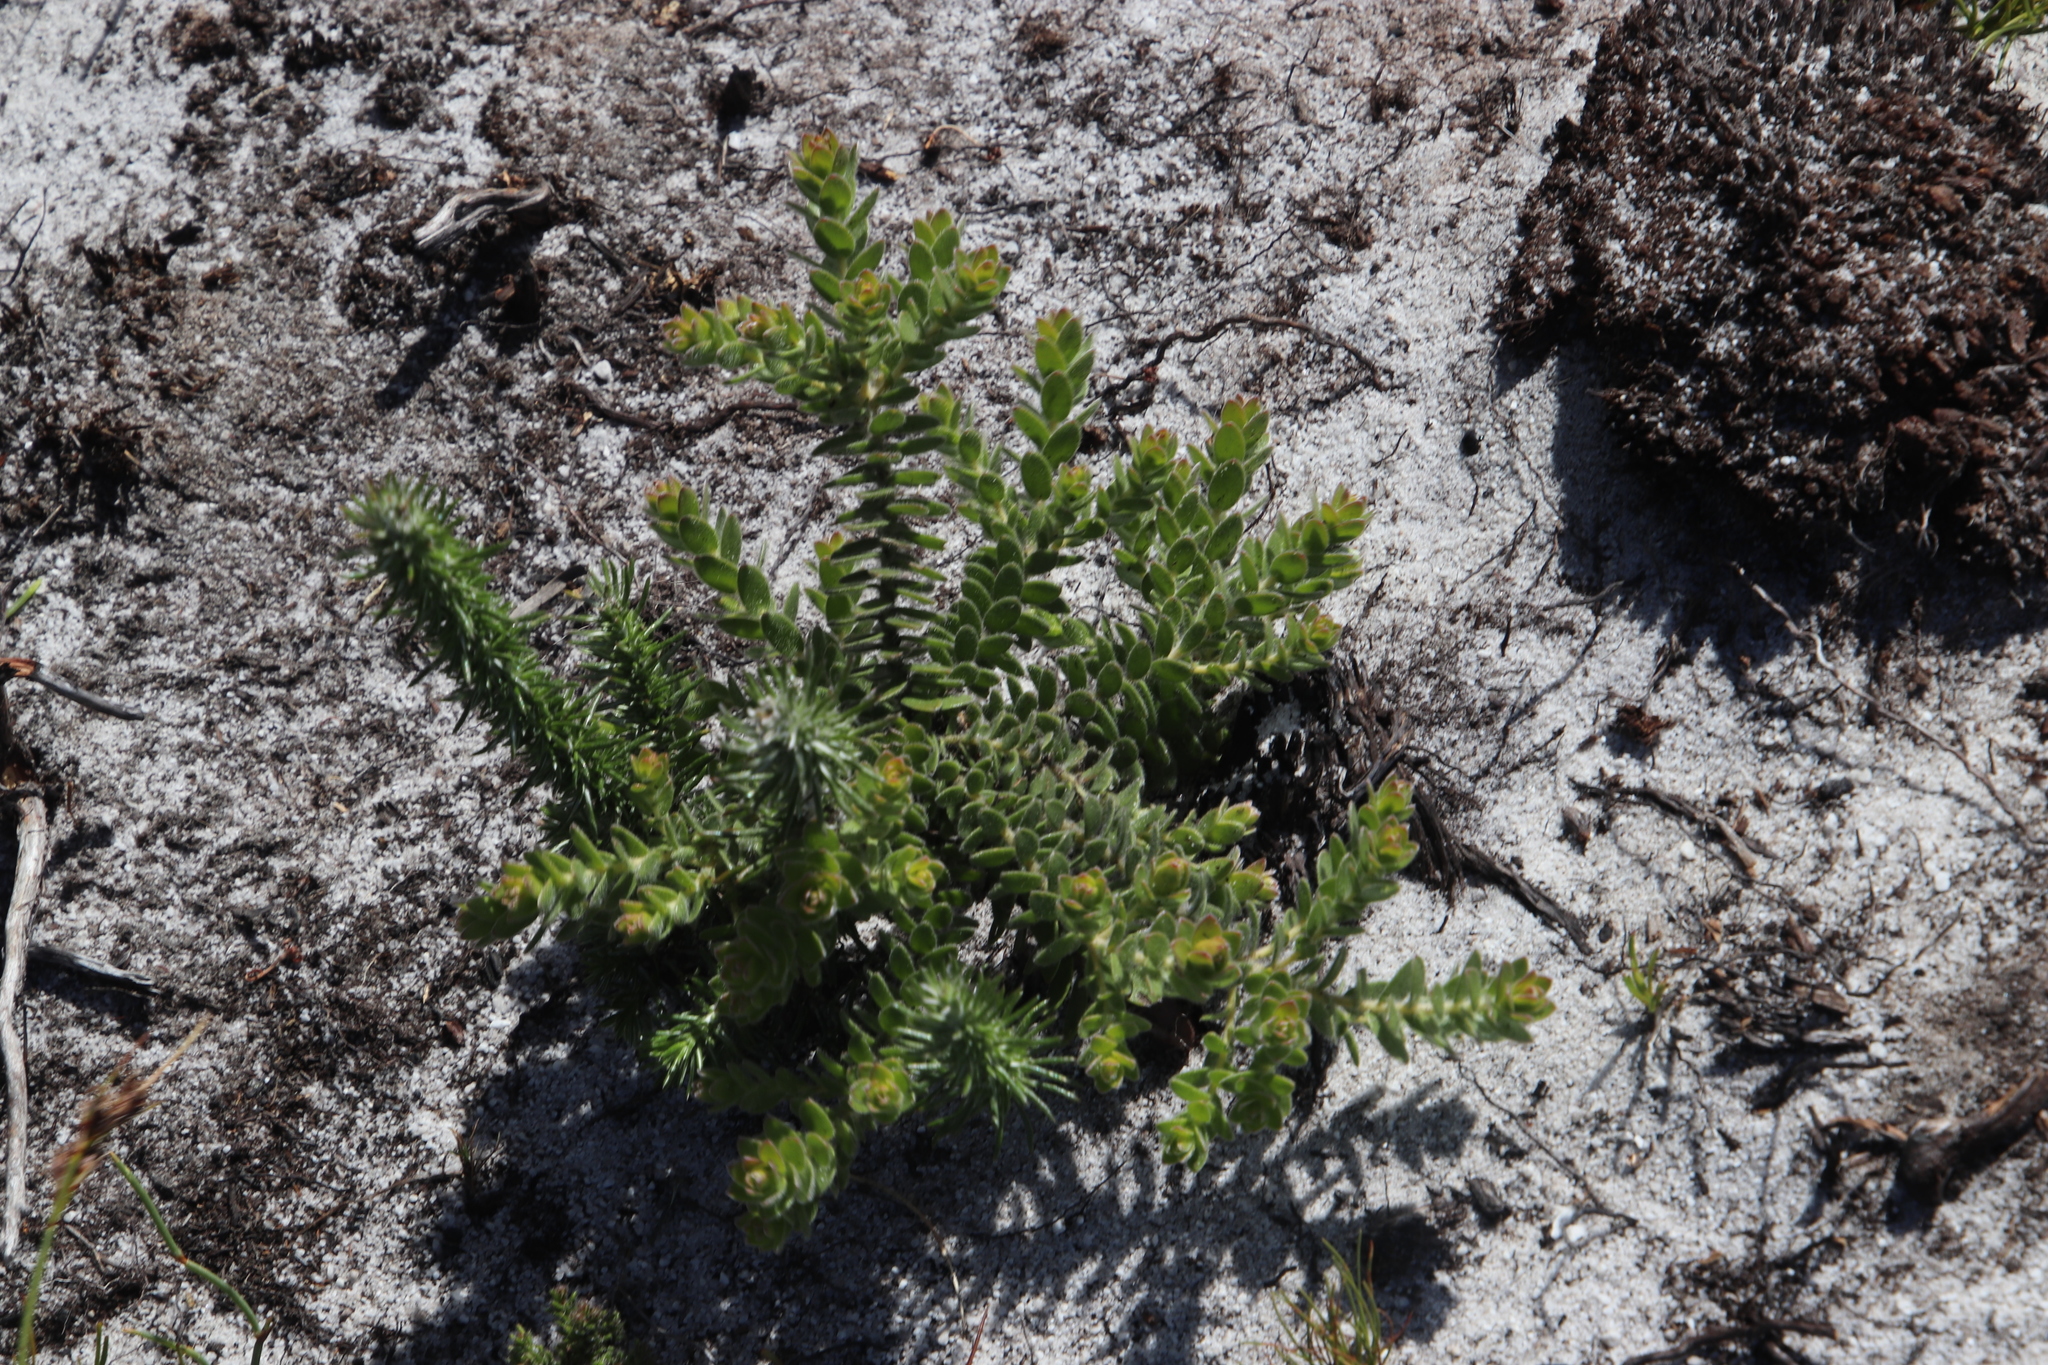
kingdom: Plantae
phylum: Tracheophyta
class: Magnoliopsida
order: Proteales
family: Proteaceae
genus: Diastella
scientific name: Diastella divaricata
